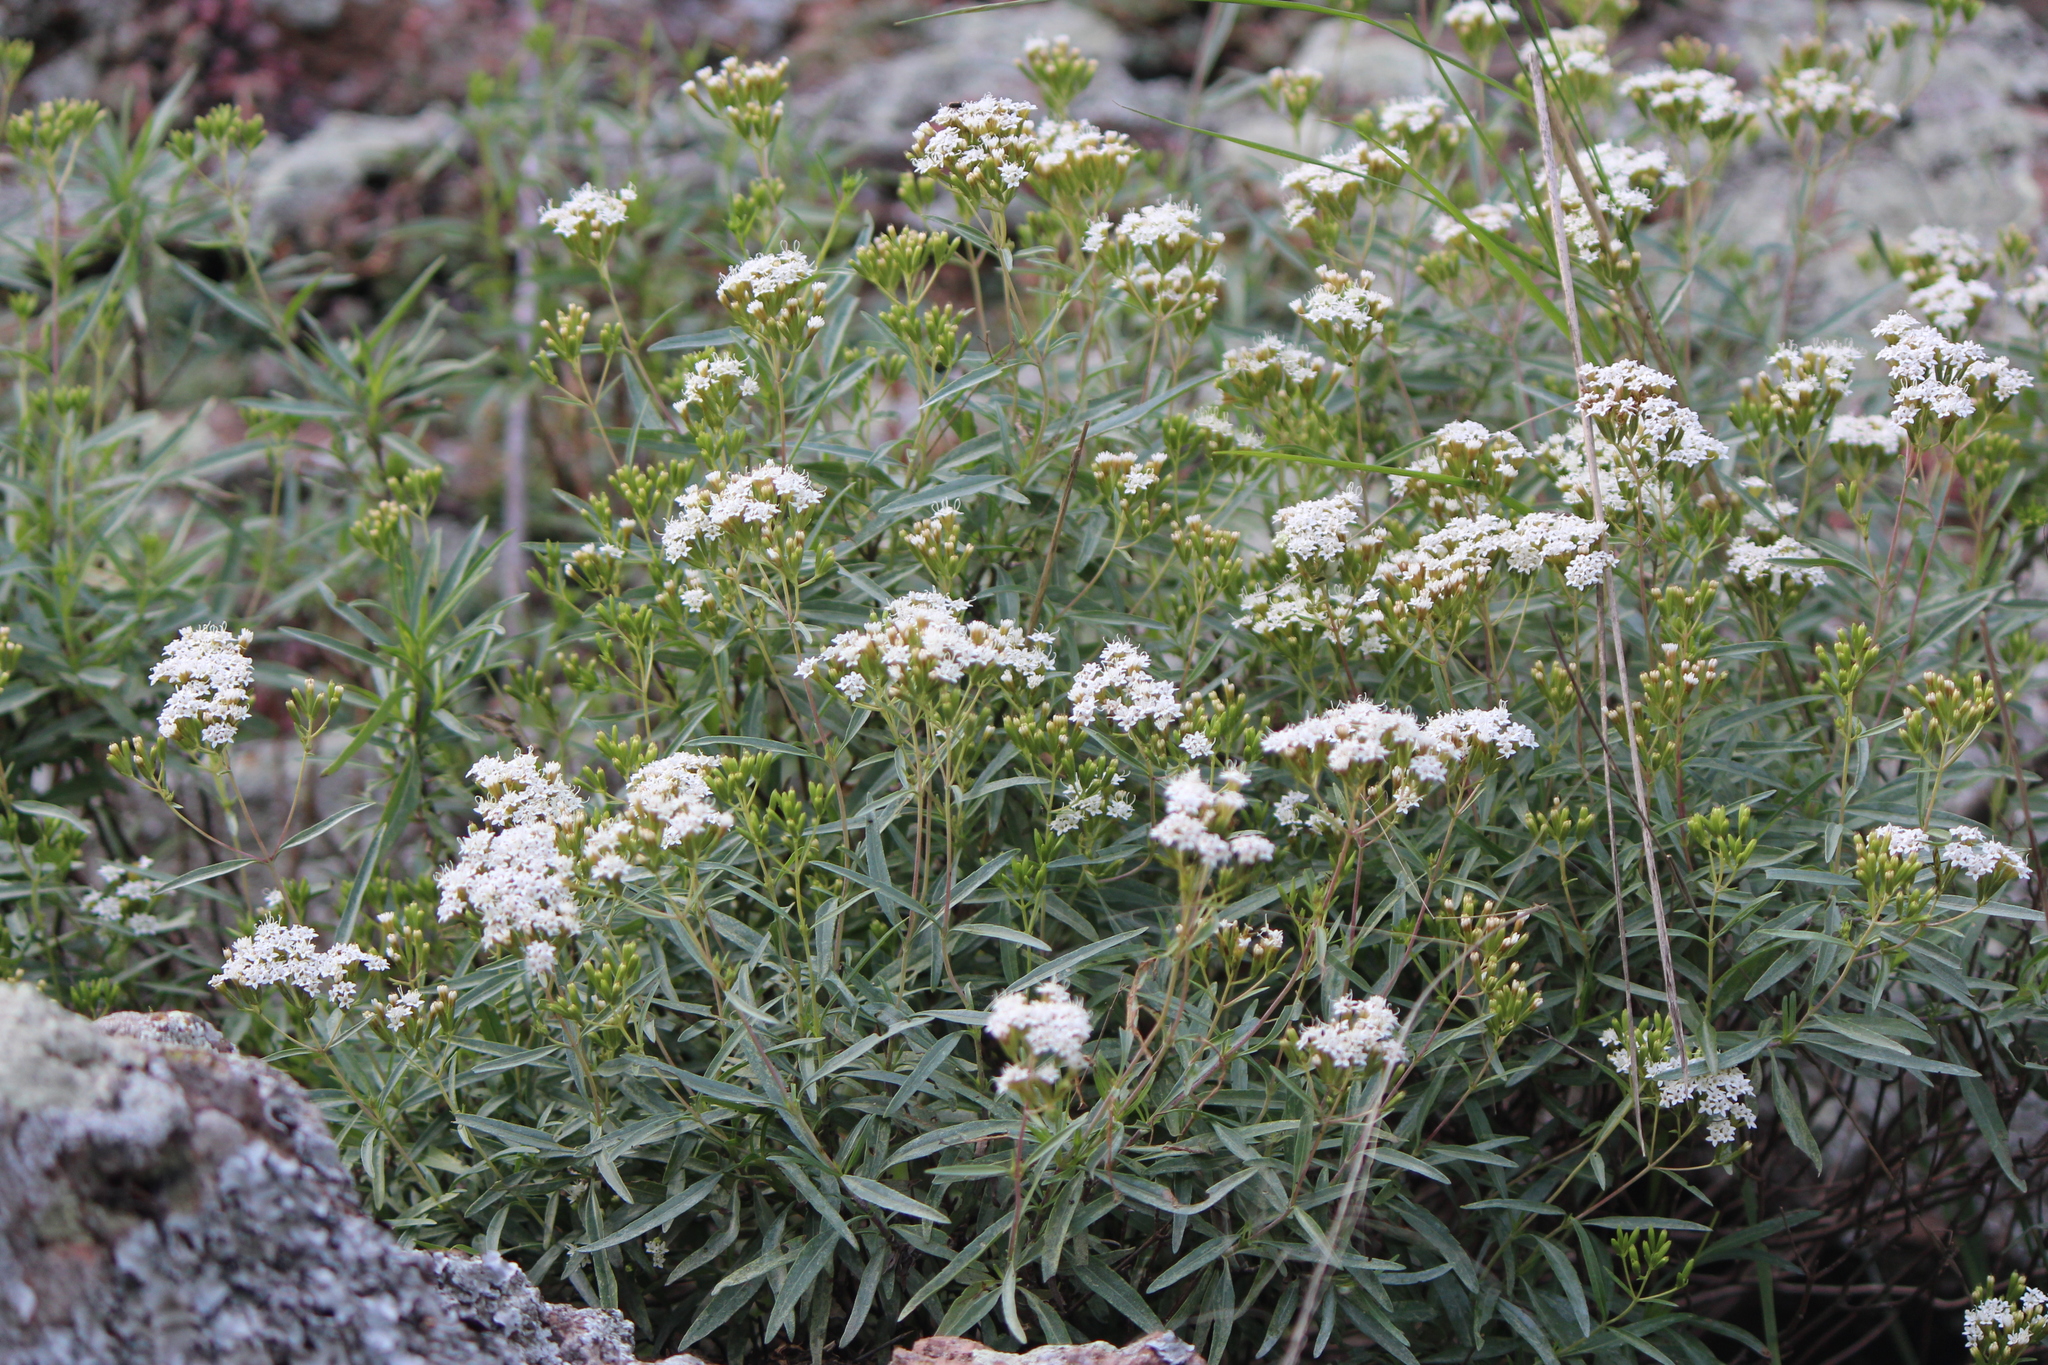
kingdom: Plantae
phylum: Tracheophyta
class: Magnoliopsida
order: Asterales
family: Asteraceae
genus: Stevia
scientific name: Stevia salicifolia
